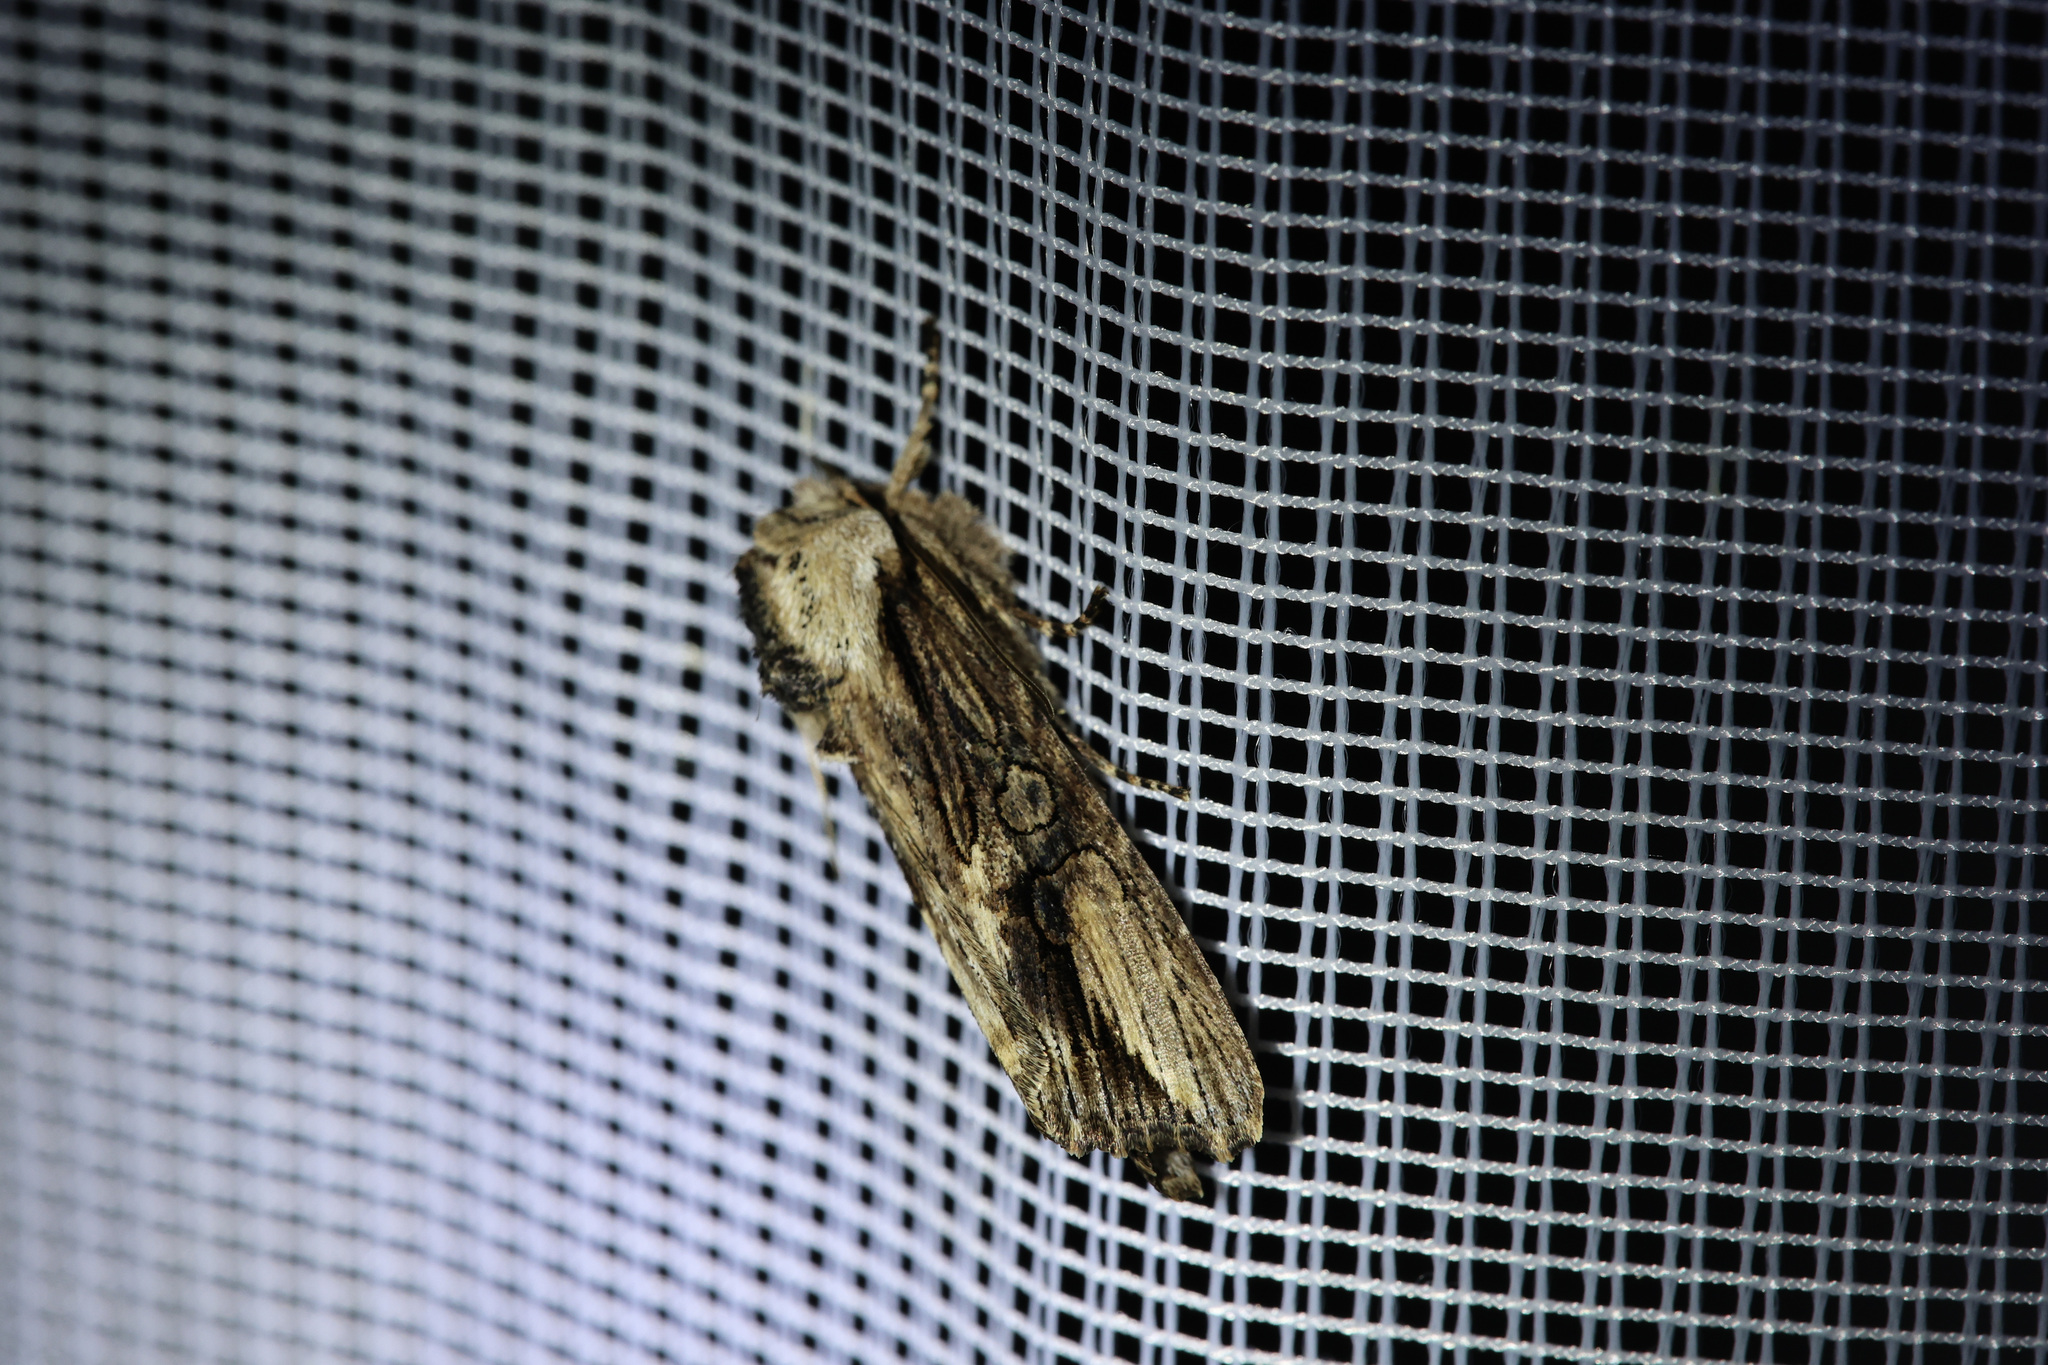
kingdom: Animalia
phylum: Arthropoda
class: Insecta
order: Lepidoptera
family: Noctuidae
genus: Egira
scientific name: Egira conspicillaris
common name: Silver cloud
